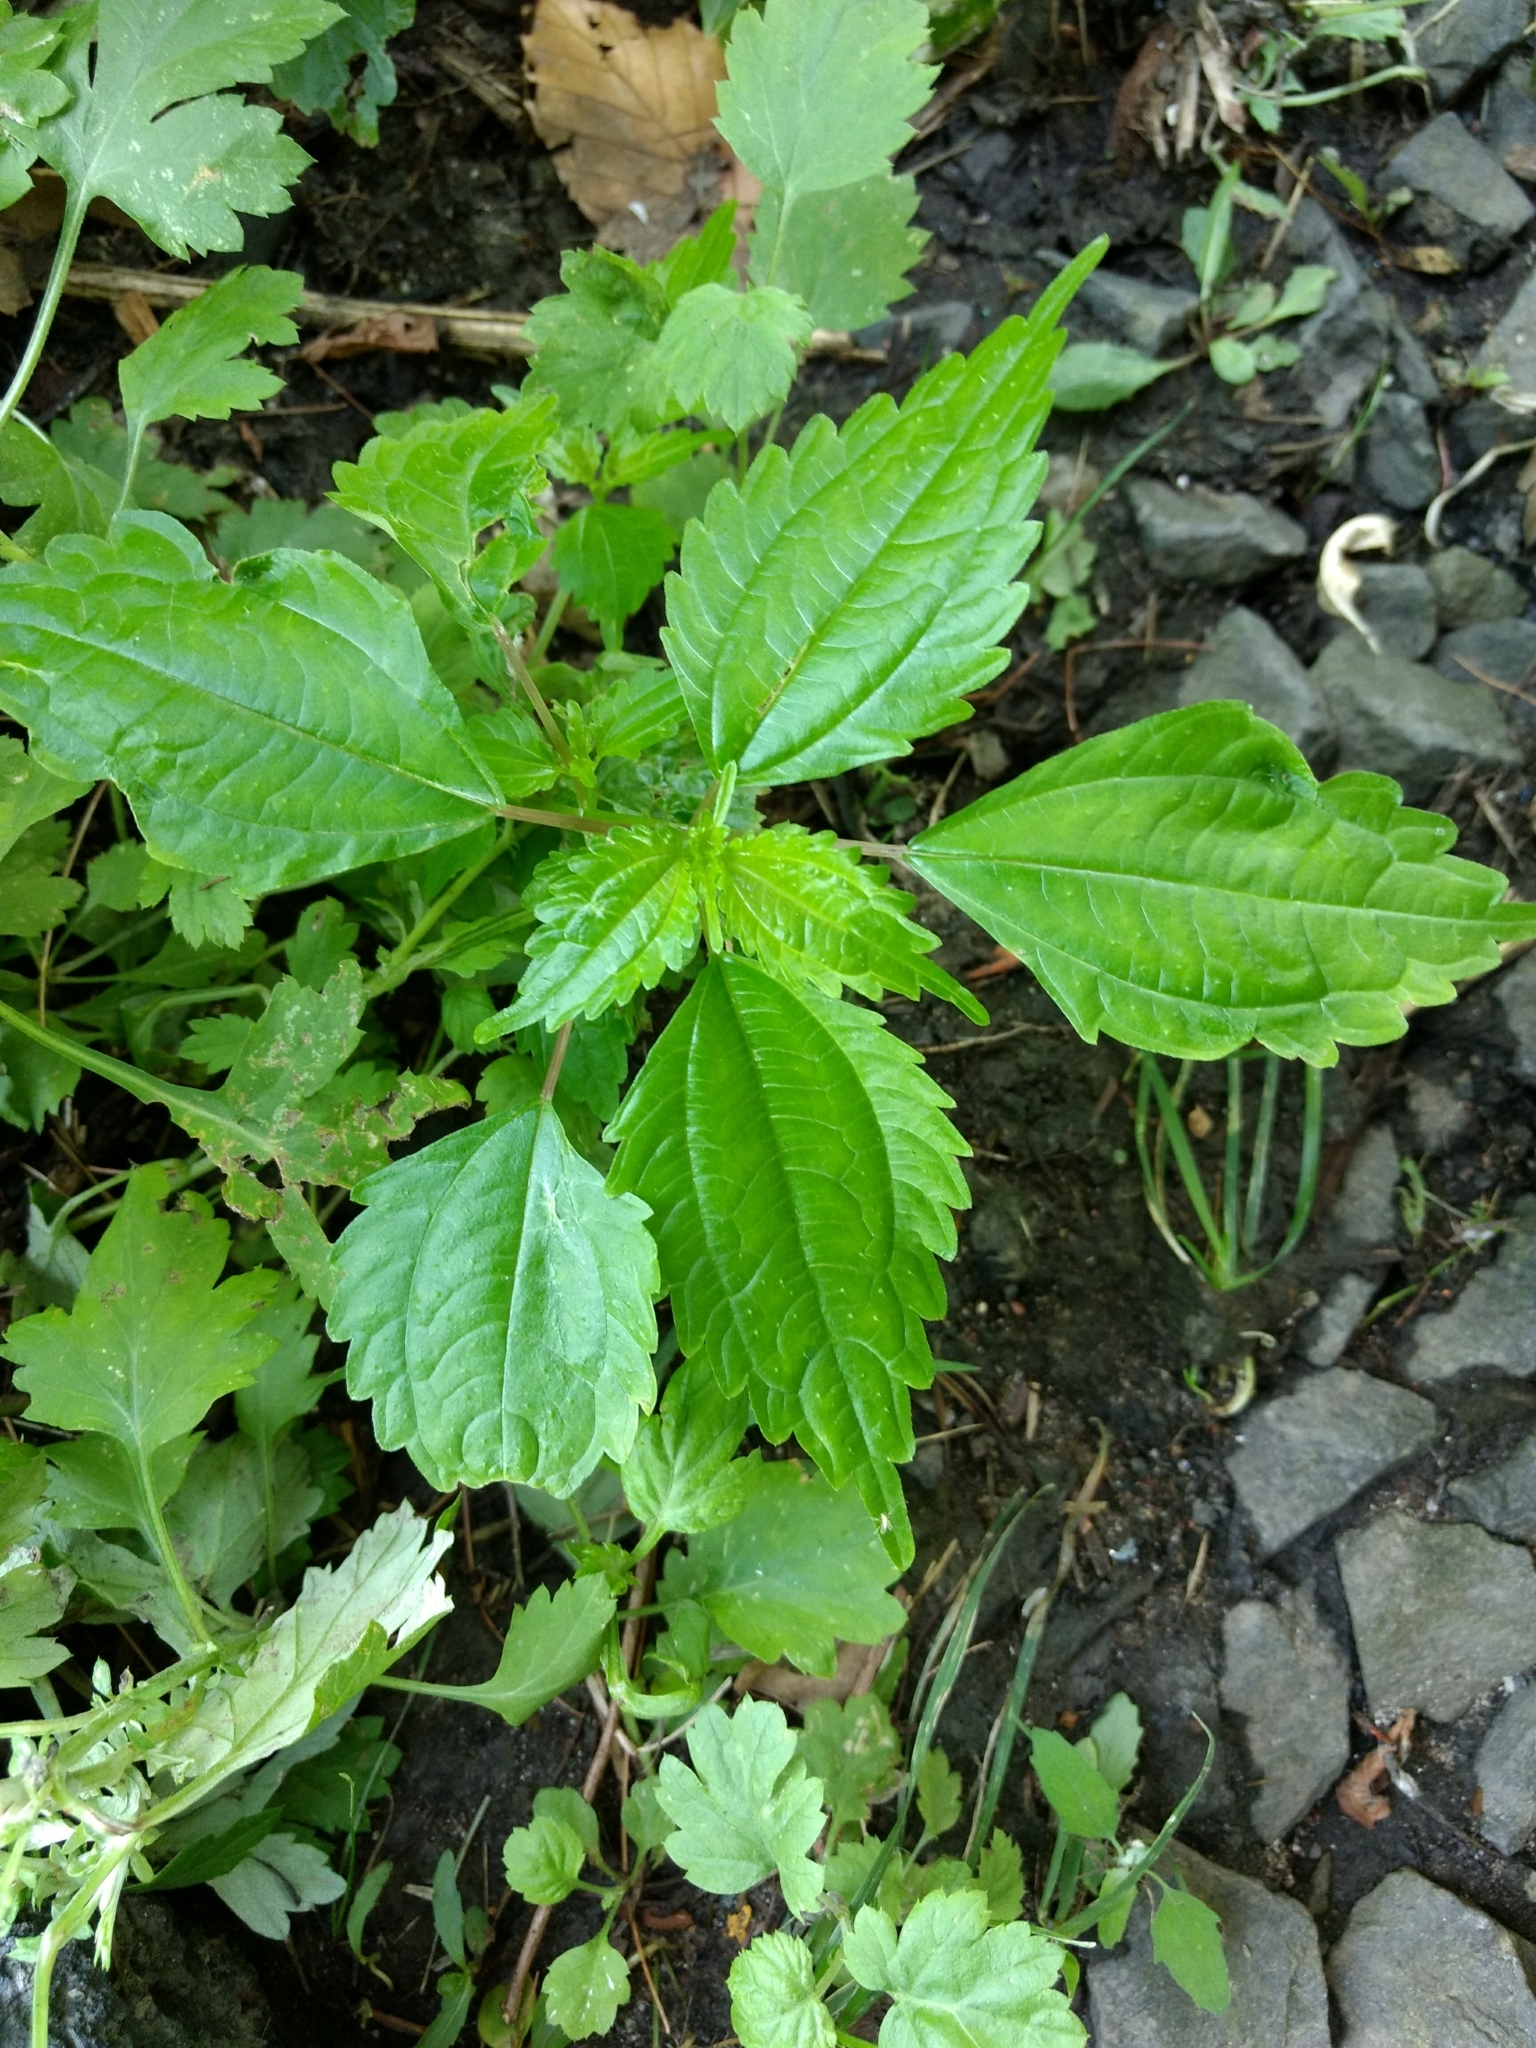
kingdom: Plantae
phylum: Tracheophyta
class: Magnoliopsida
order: Rosales
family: Urticaceae
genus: Pilea
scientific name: Pilea pumila
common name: Clearweed
